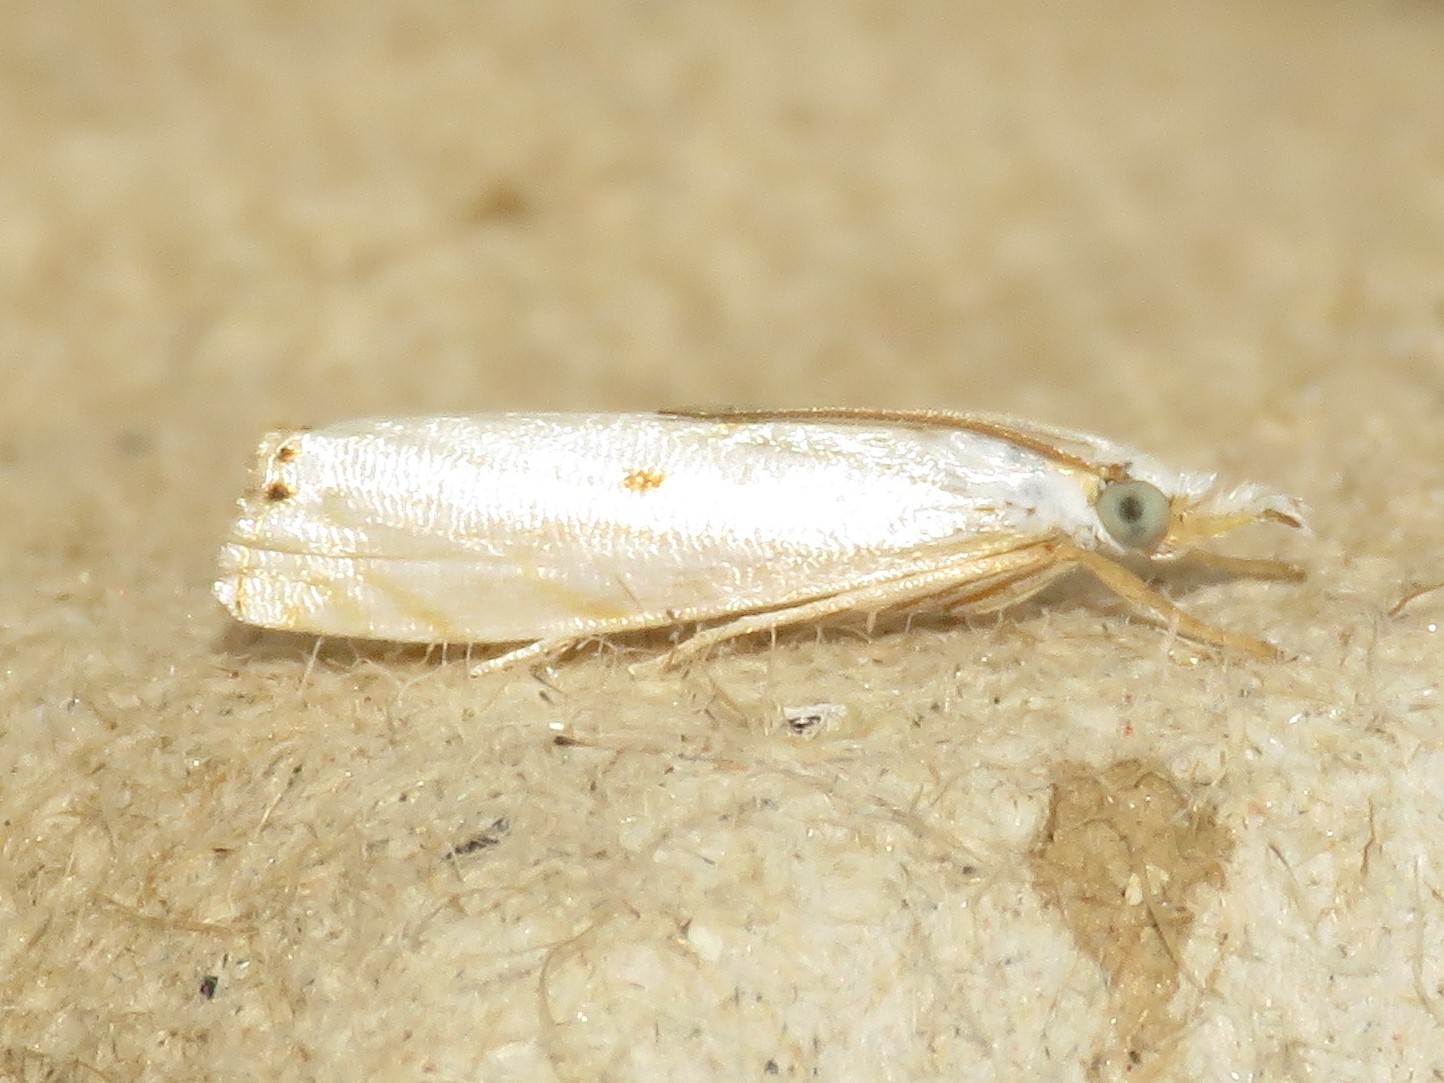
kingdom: Animalia
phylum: Arthropoda
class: Insecta
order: Lepidoptera
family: Crambidae
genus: Microcrambus
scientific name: Microcrambus biguttellus
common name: Gold-stripe grass-veneer moth
